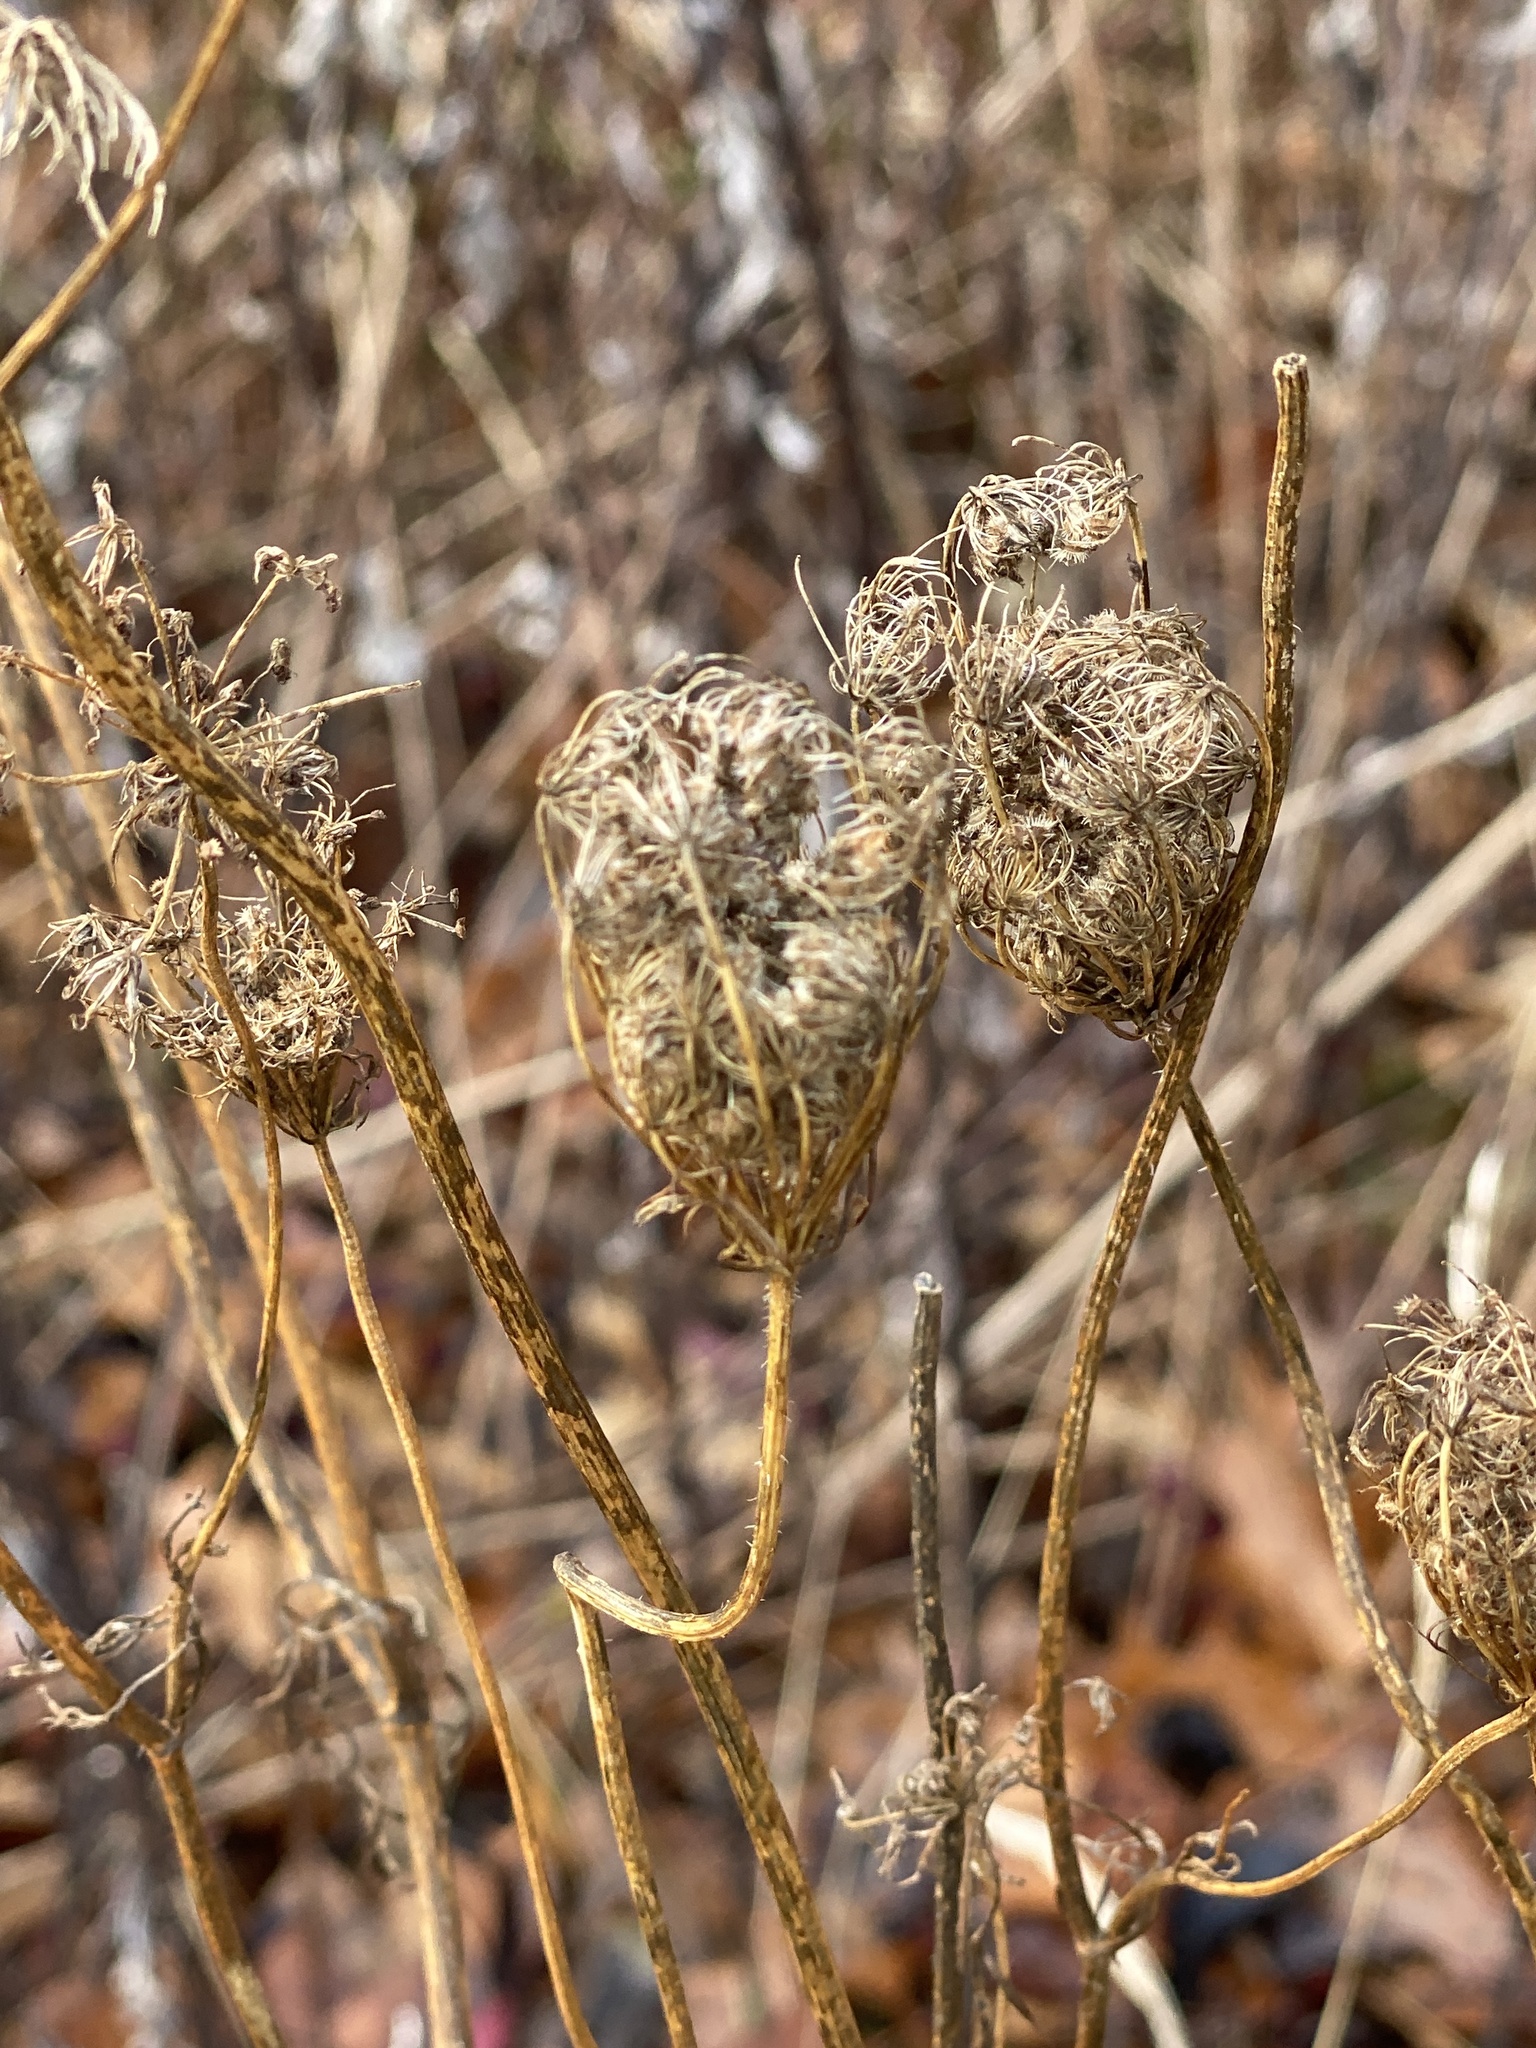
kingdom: Plantae
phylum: Tracheophyta
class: Magnoliopsida
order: Apiales
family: Apiaceae
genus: Daucus
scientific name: Daucus carota
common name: Wild carrot
